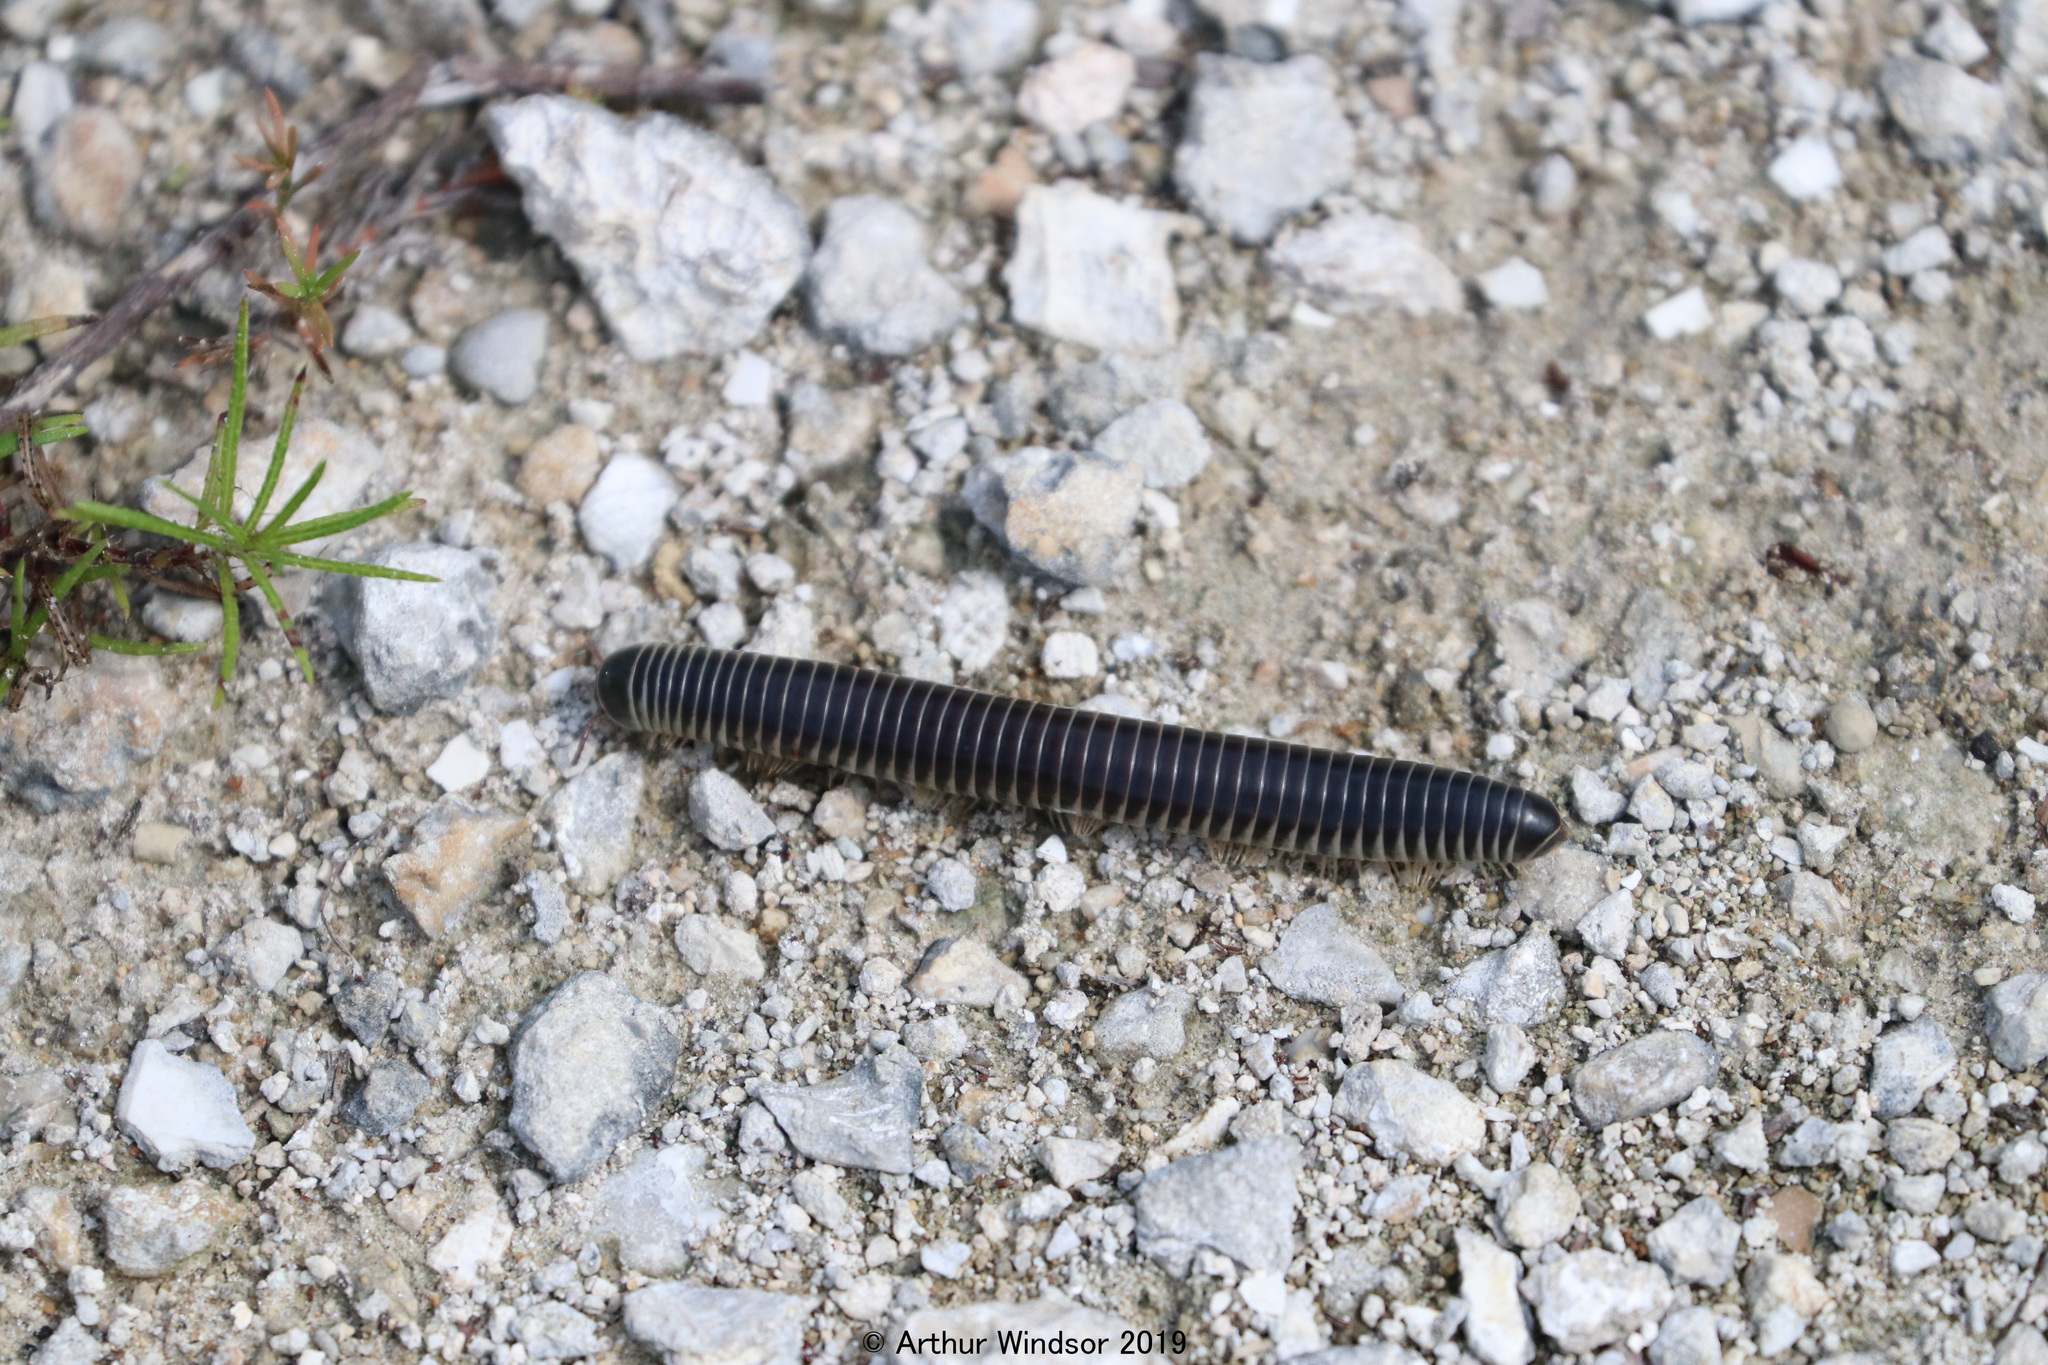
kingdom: Animalia
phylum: Arthropoda
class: Diplopoda
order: Spirobolida
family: Spirobolidae
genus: Chicobolus
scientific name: Chicobolus spinigerus
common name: Florida ivory millipede
